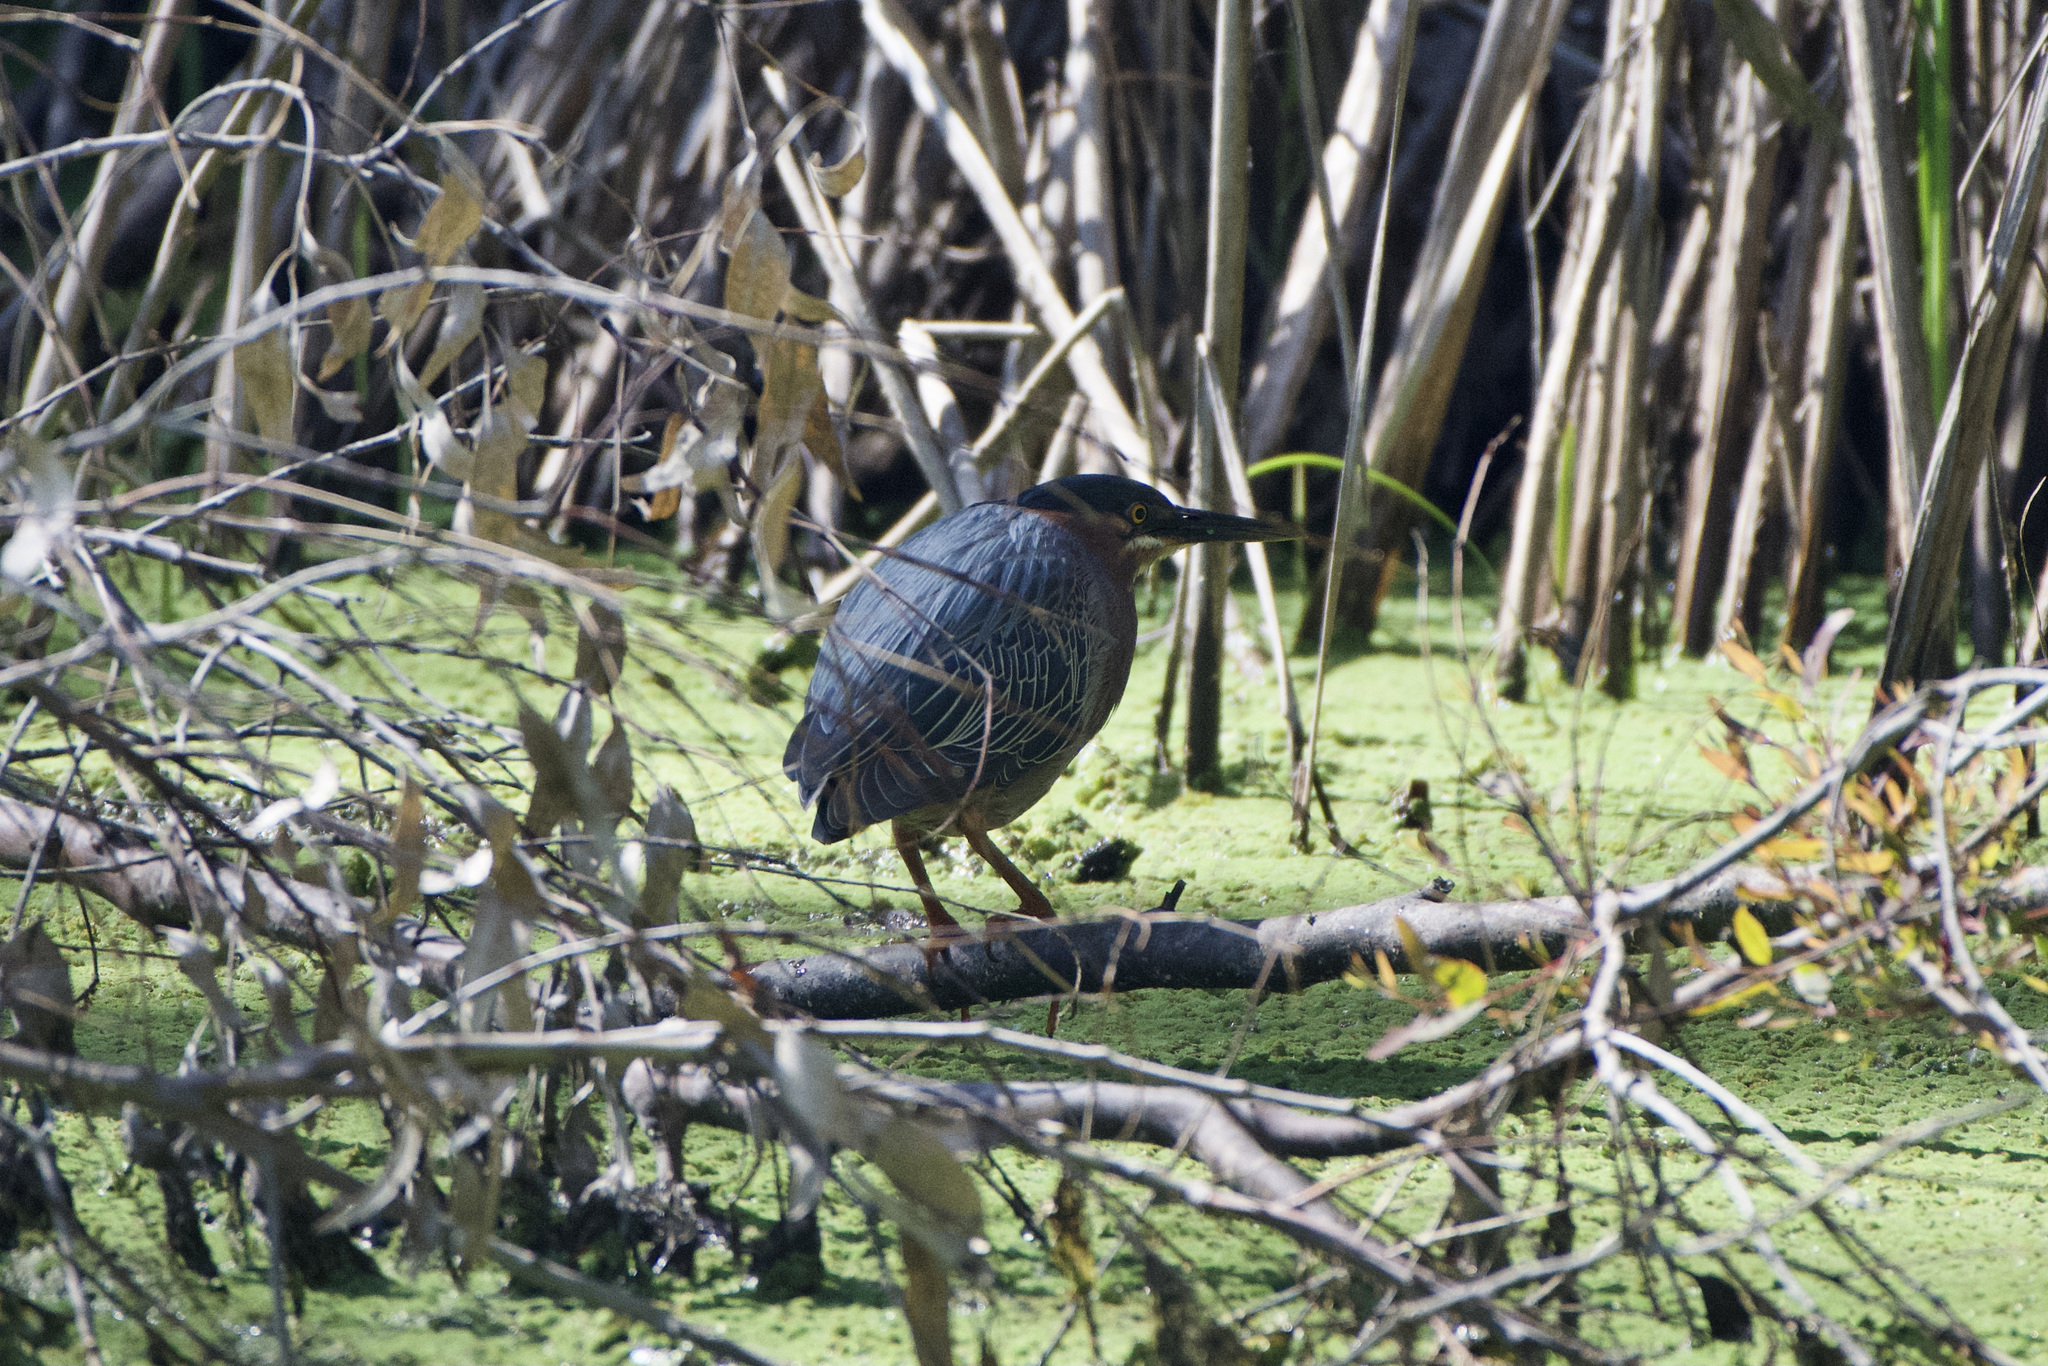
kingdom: Animalia
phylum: Chordata
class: Aves
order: Pelecaniformes
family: Ardeidae
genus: Butorides
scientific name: Butorides virescens
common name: Green heron
